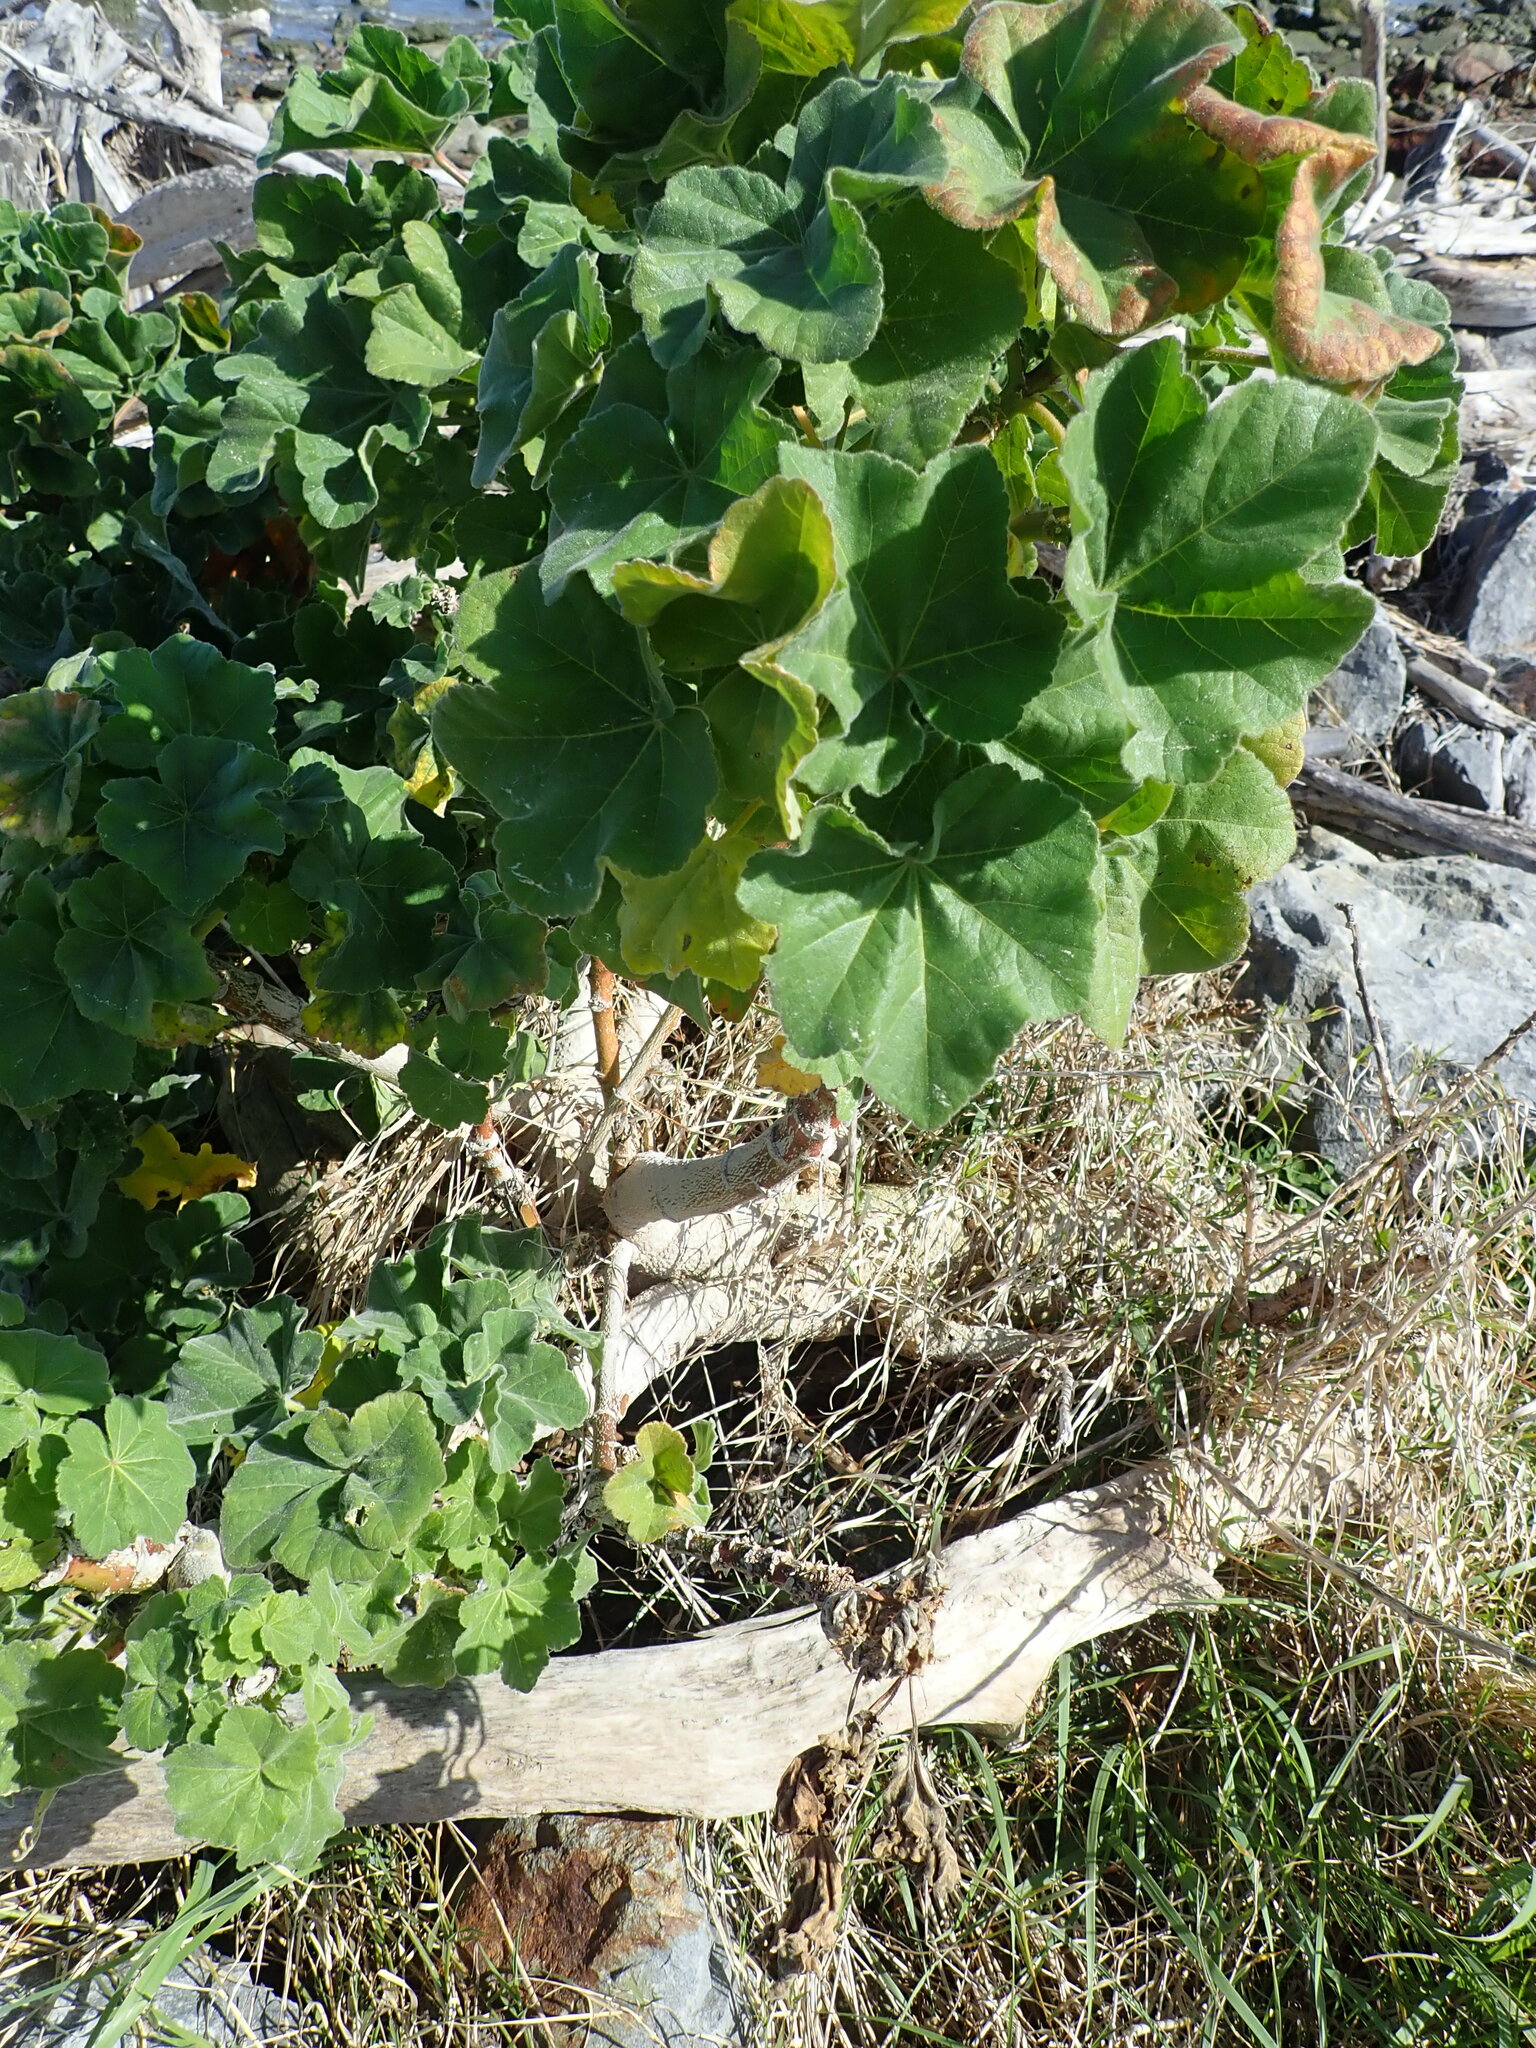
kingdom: Plantae
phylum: Tracheophyta
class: Magnoliopsida
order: Malvales
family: Malvaceae
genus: Malva
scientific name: Malva arborea
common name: Tree mallow
